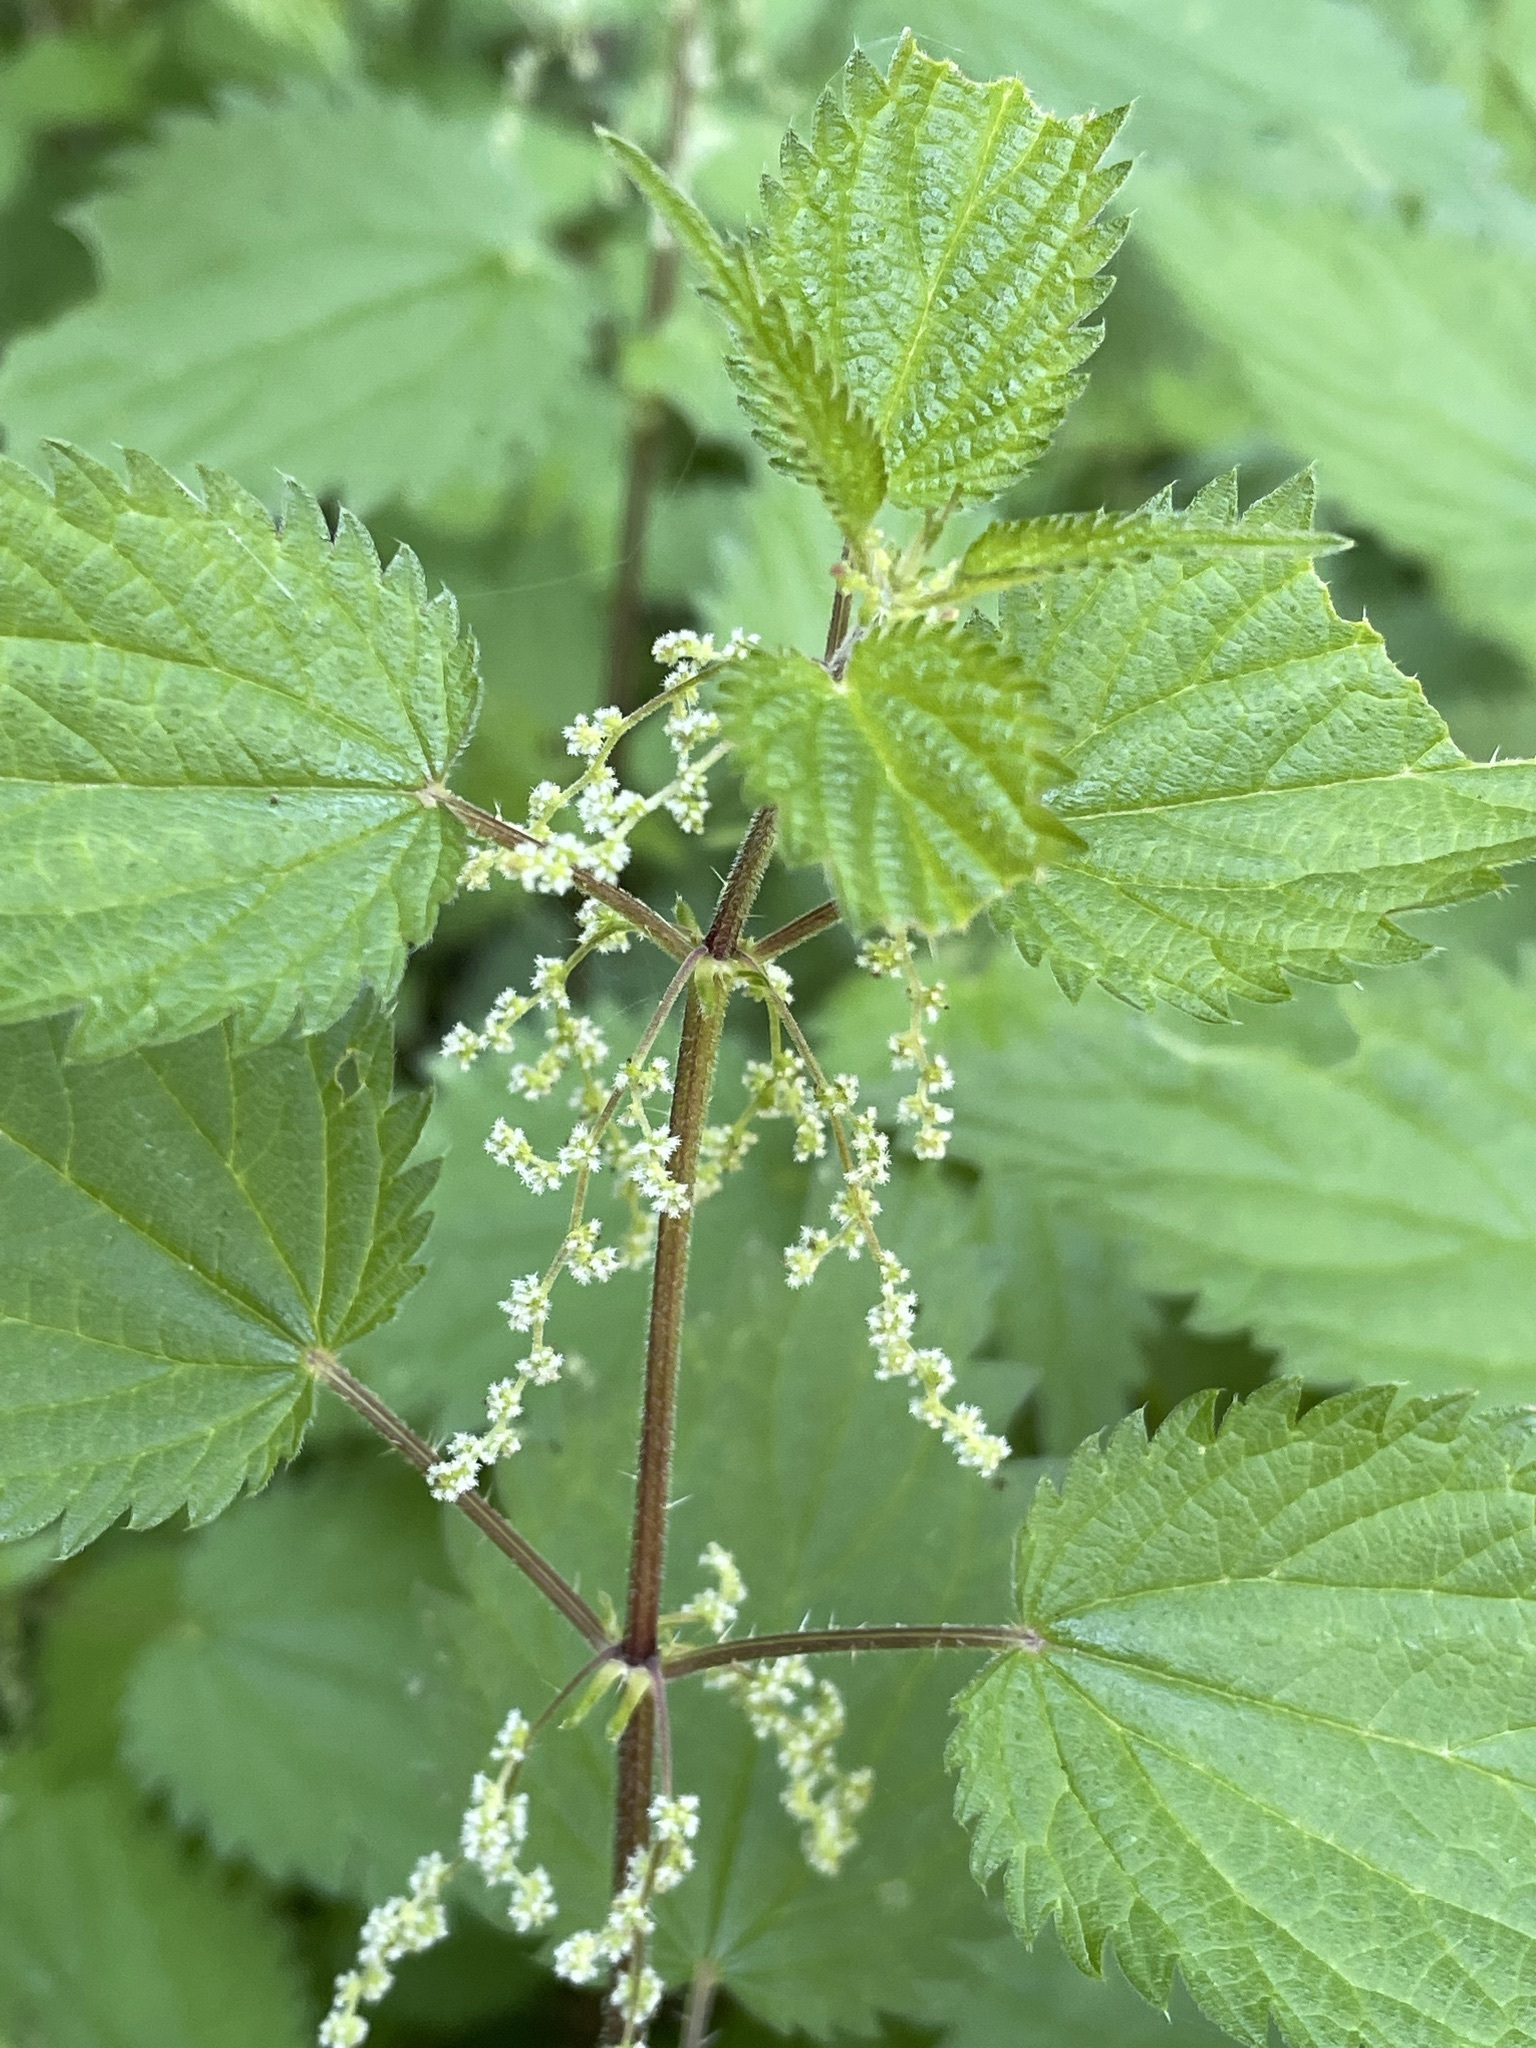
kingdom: Plantae
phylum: Tracheophyta
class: Magnoliopsida
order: Rosales
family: Urticaceae
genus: Urtica
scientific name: Urtica dioica
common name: Common nettle
